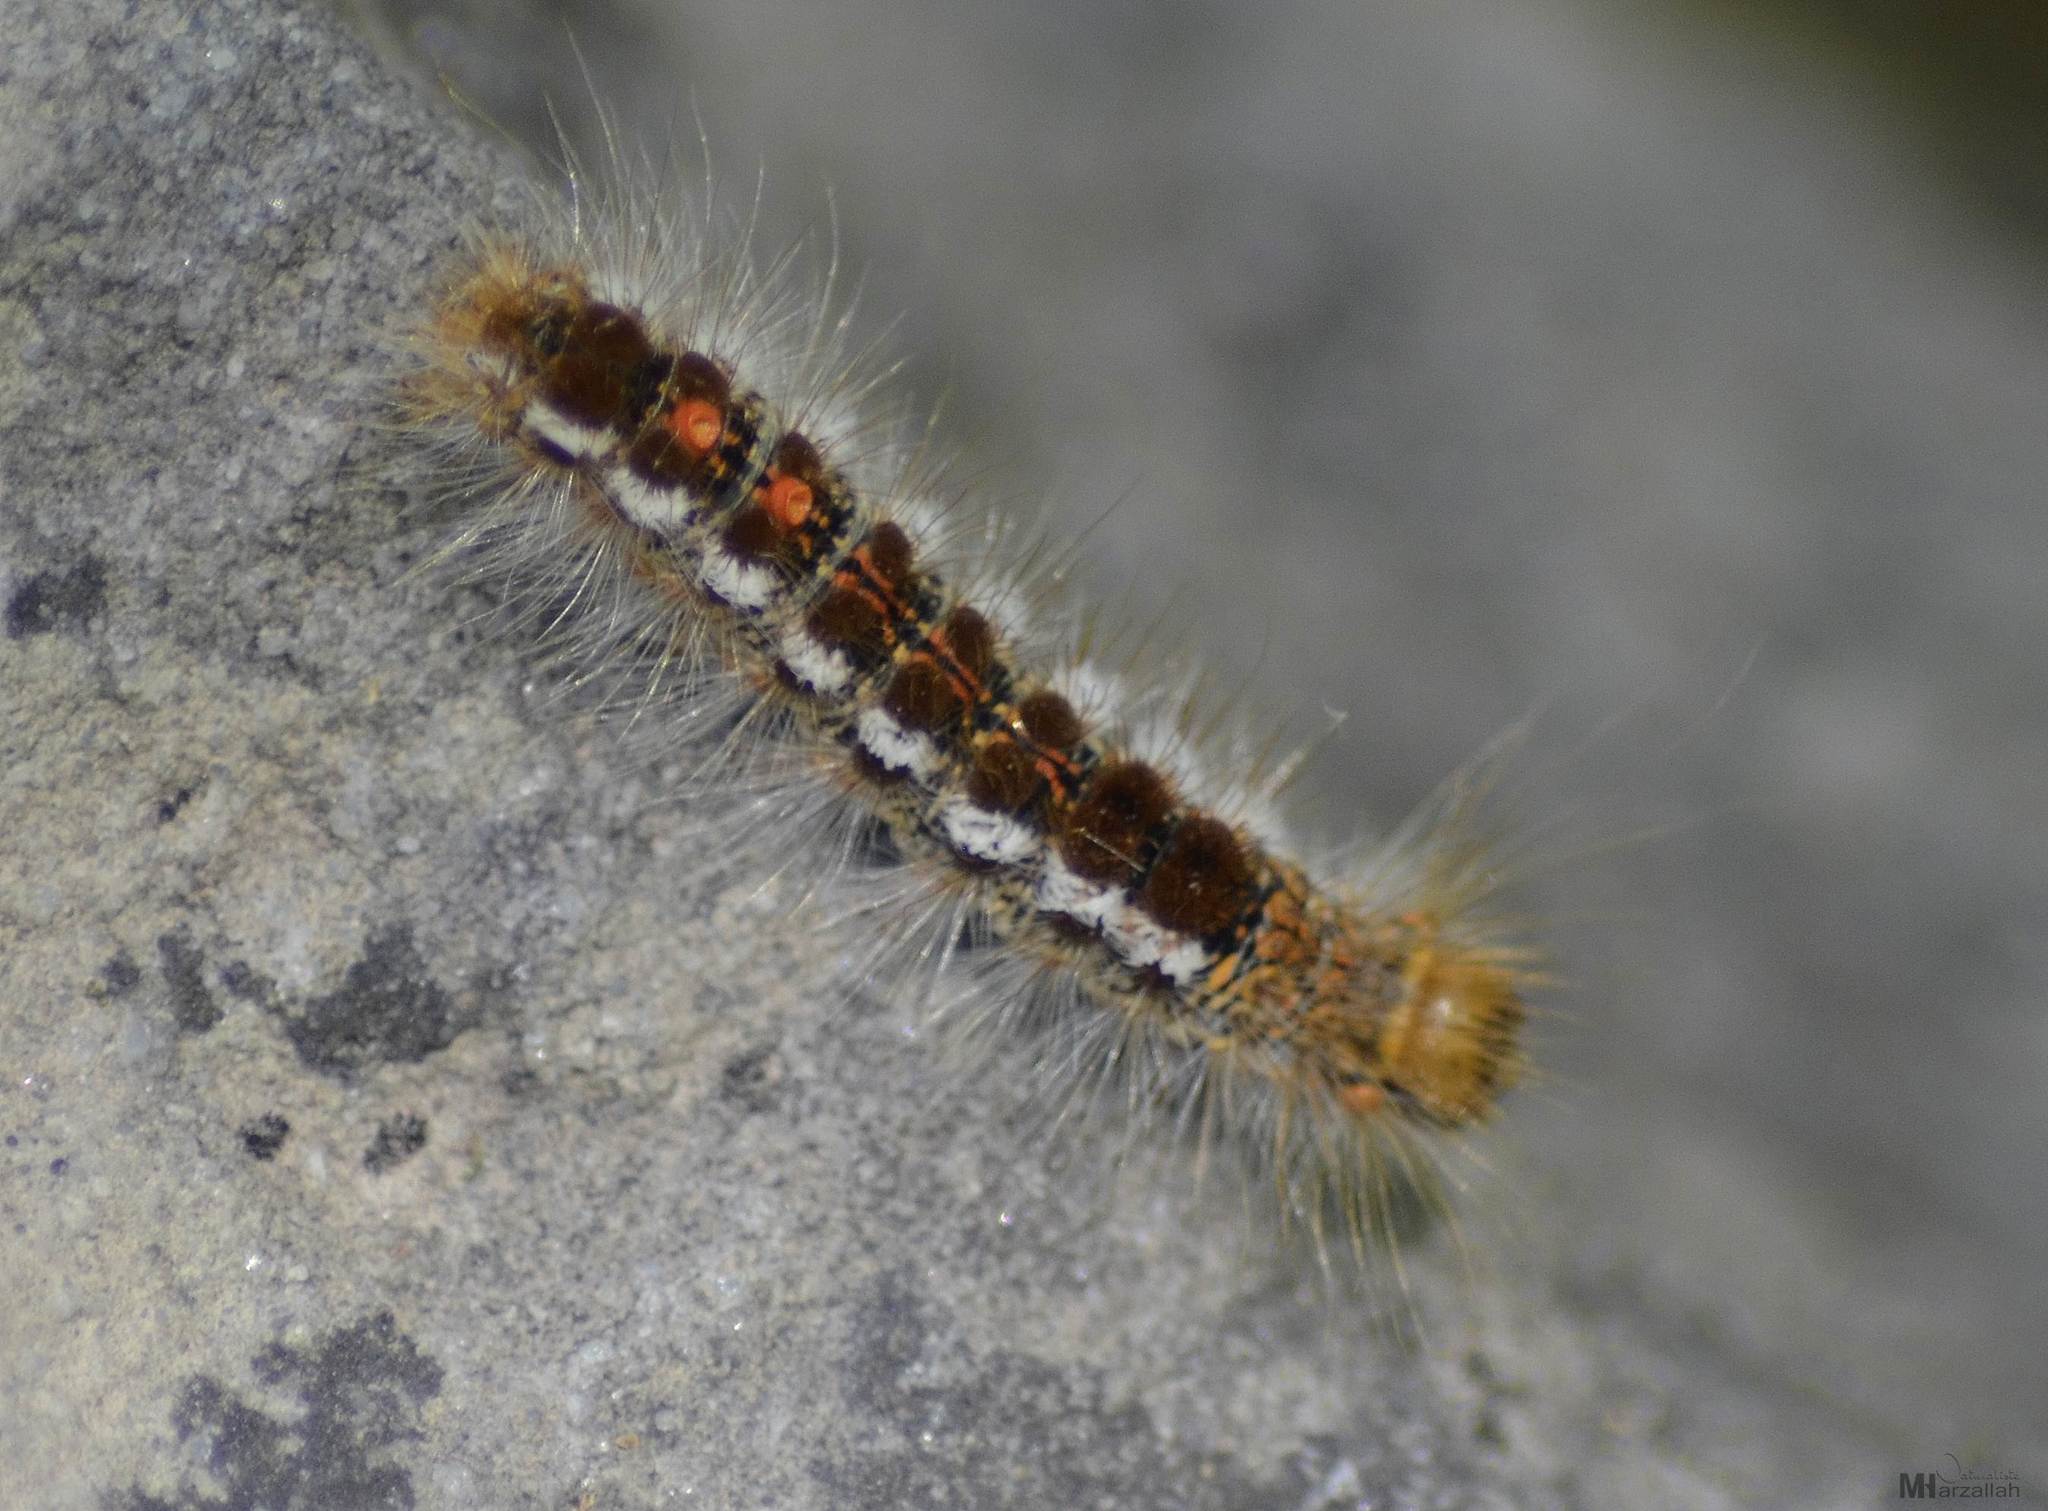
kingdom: Animalia
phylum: Arthropoda
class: Insecta
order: Lepidoptera
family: Erebidae
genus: Euproctis
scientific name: Euproctis chrysorrhoea
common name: Brown-tail
